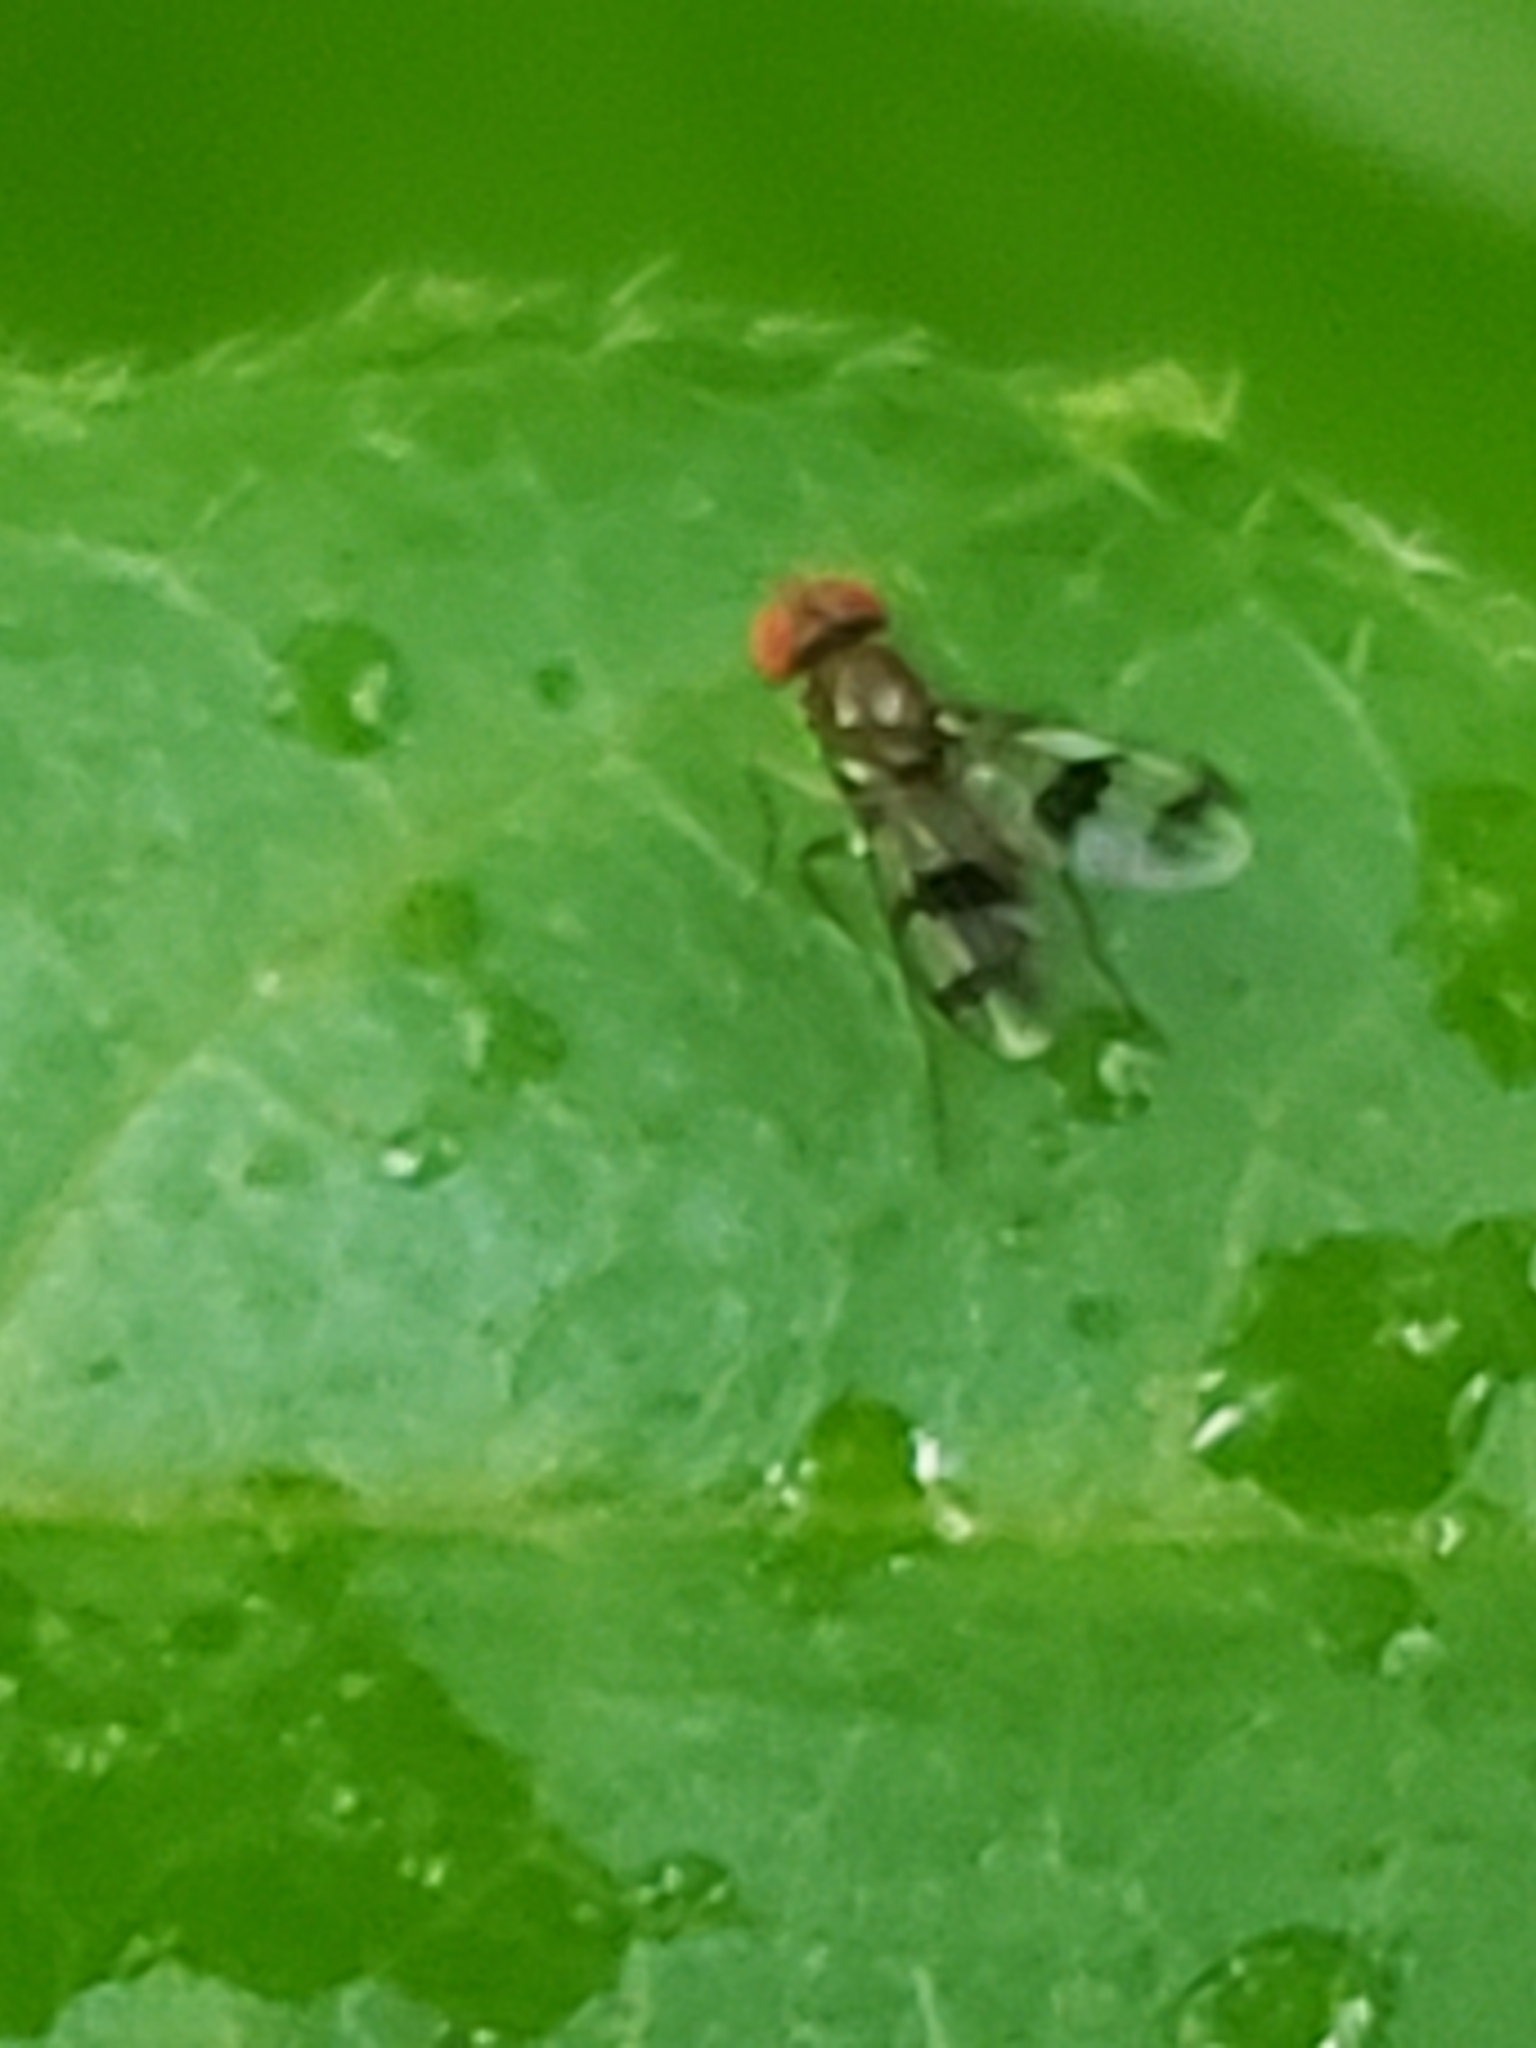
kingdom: Animalia
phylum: Arthropoda
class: Insecta
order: Diptera
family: Drosophilidae
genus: Chymomyza
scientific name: Chymomyza amoena
